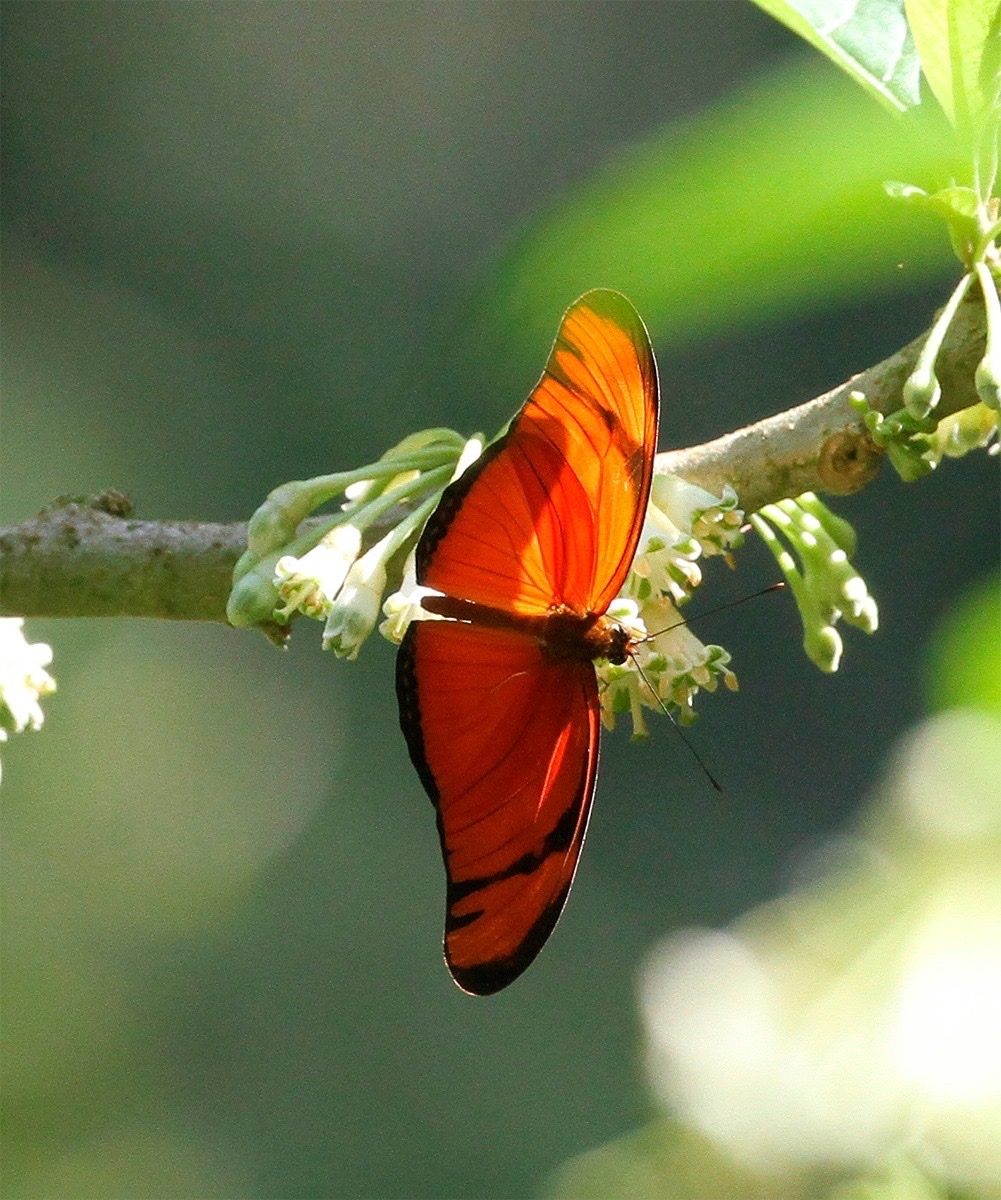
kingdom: Animalia
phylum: Arthropoda
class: Insecta
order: Lepidoptera
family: Nymphalidae
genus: Dryas
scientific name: Dryas iulia
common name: Flambeau
